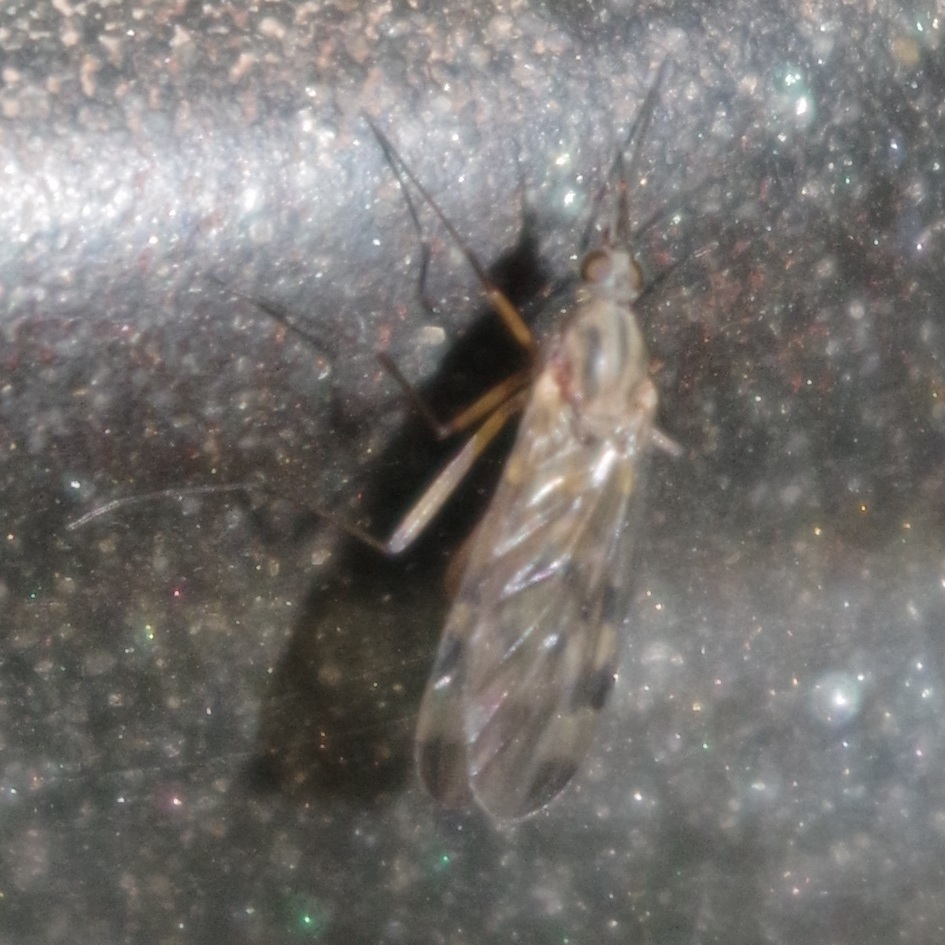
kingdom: Animalia
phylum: Arthropoda
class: Insecta
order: Diptera
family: Anisopodidae
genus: Sylvicola
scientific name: Sylvicola fenestralis
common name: Window gnat
